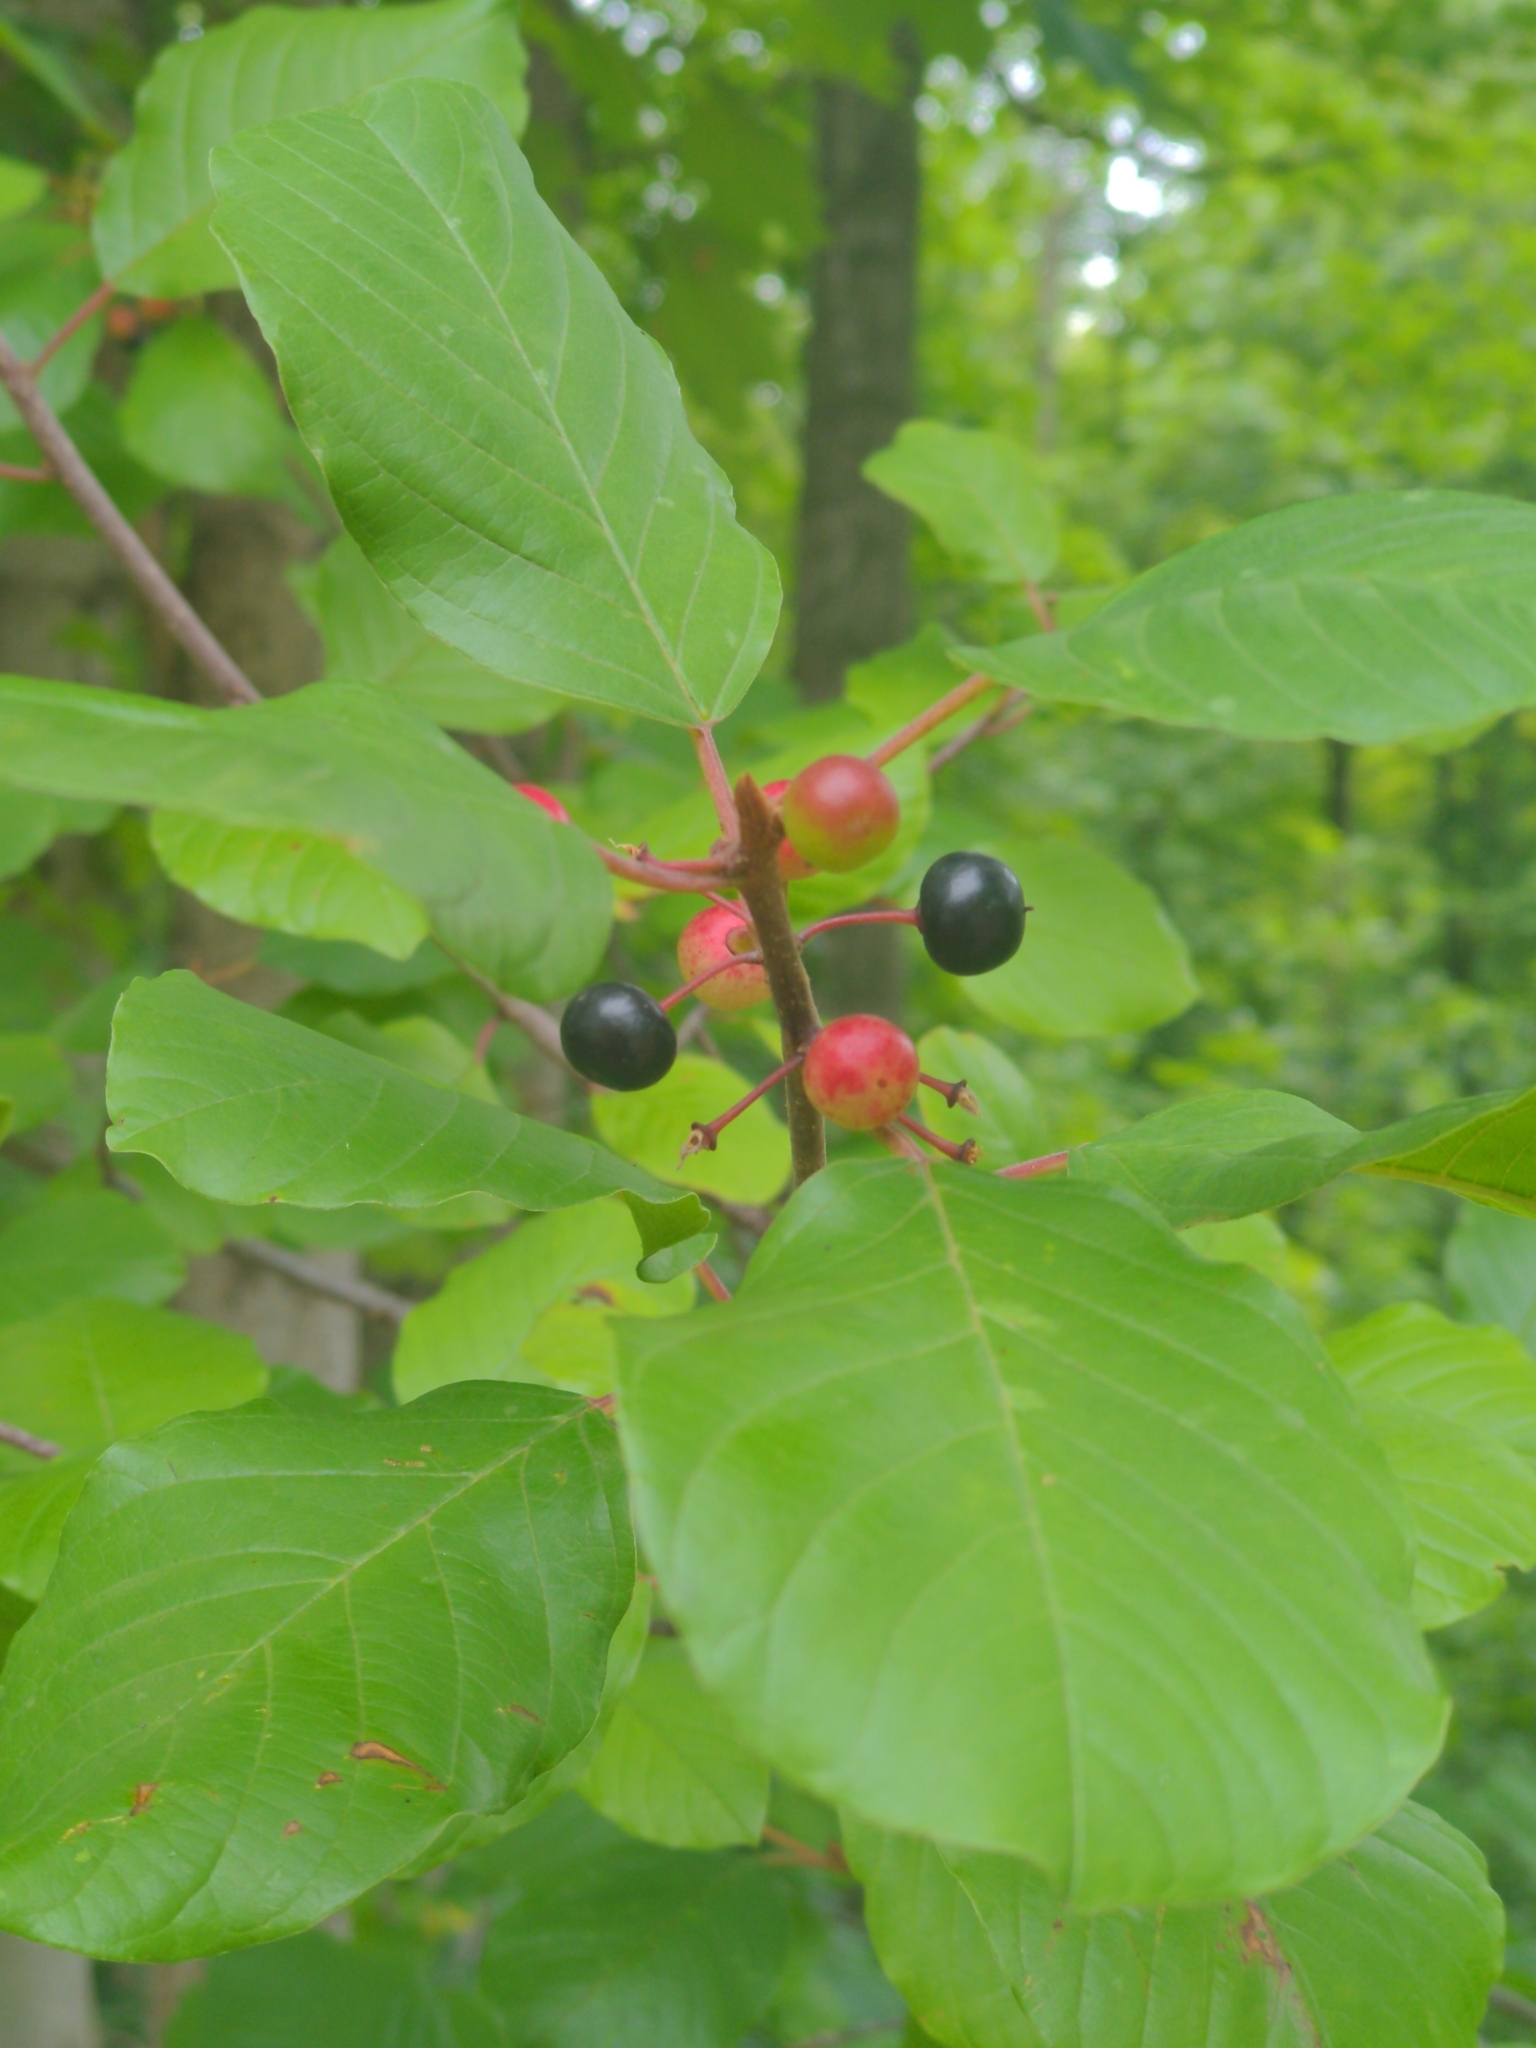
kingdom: Plantae
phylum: Tracheophyta
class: Magnoliopsida
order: Rosales
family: Rhamnaceae
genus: Frangula
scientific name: Frangula alnus
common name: Alder buckthorn
